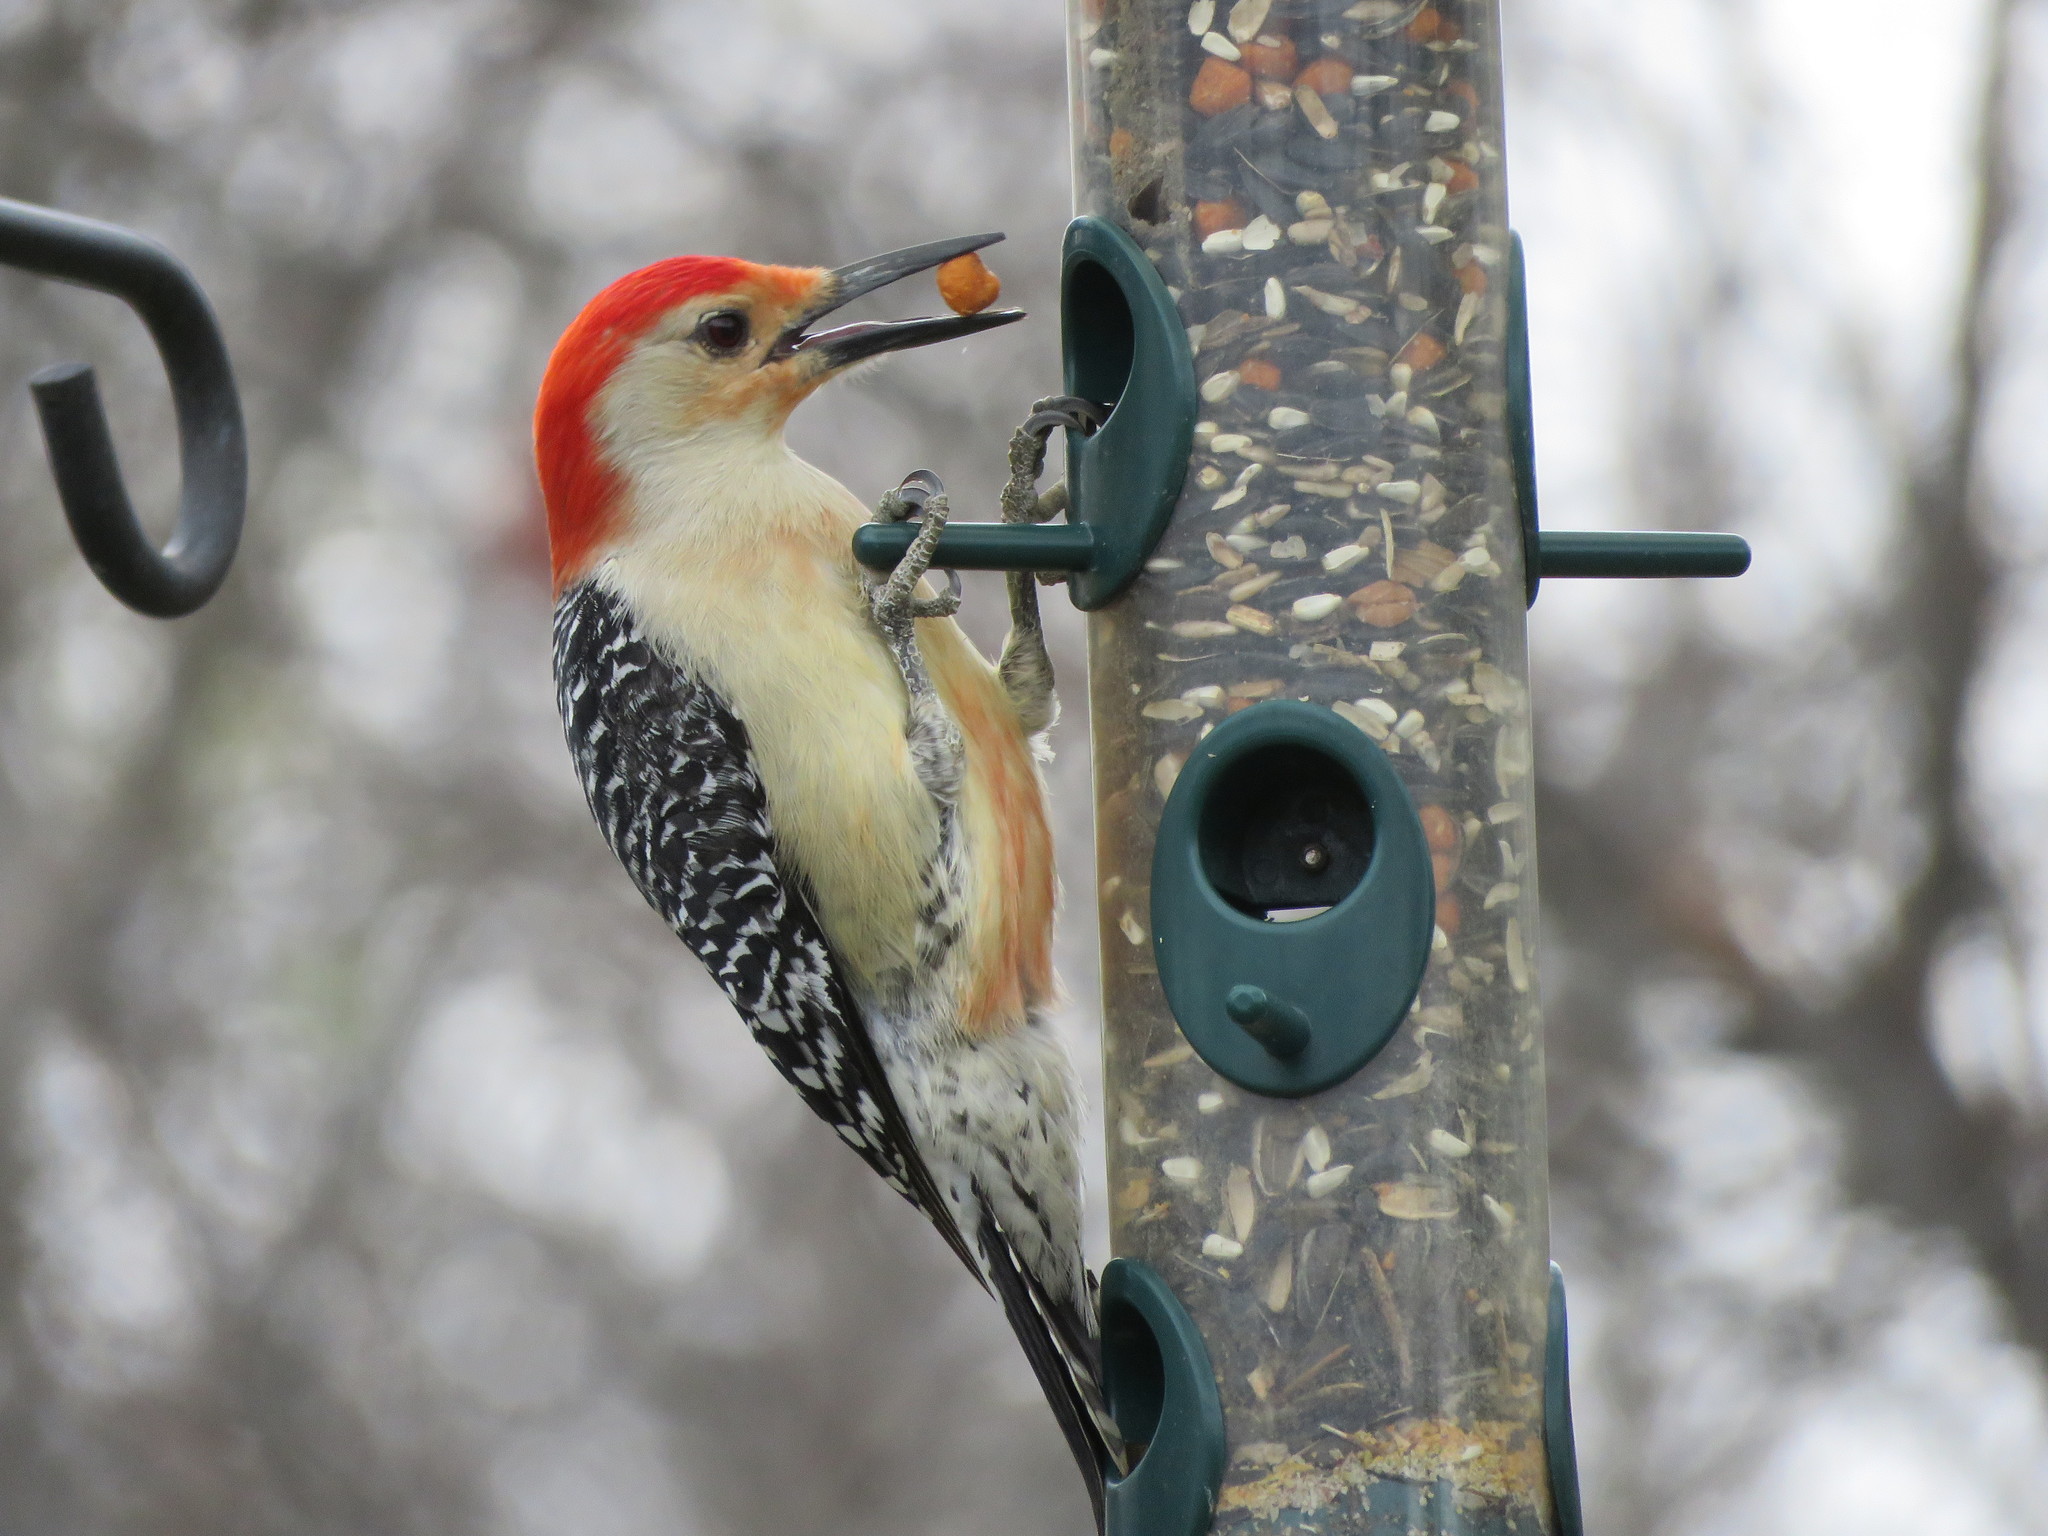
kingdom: Animalia
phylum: Chordata
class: Aves
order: Piciformes
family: Picidae
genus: Melanerpes
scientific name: Melanerpes carolinus
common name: Red-bellied woodpecker
